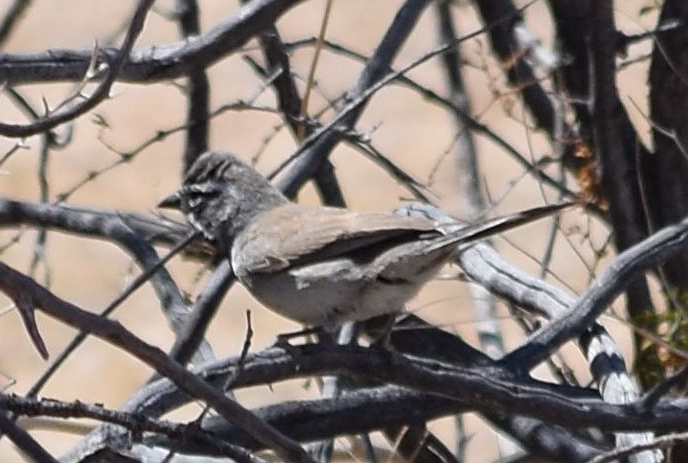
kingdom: Animalia
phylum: Chordata
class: Aves
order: Passeriformes
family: Passerellidae
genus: Amphispiza
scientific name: Amphispiza bilineata
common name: Black-throated sparrow
